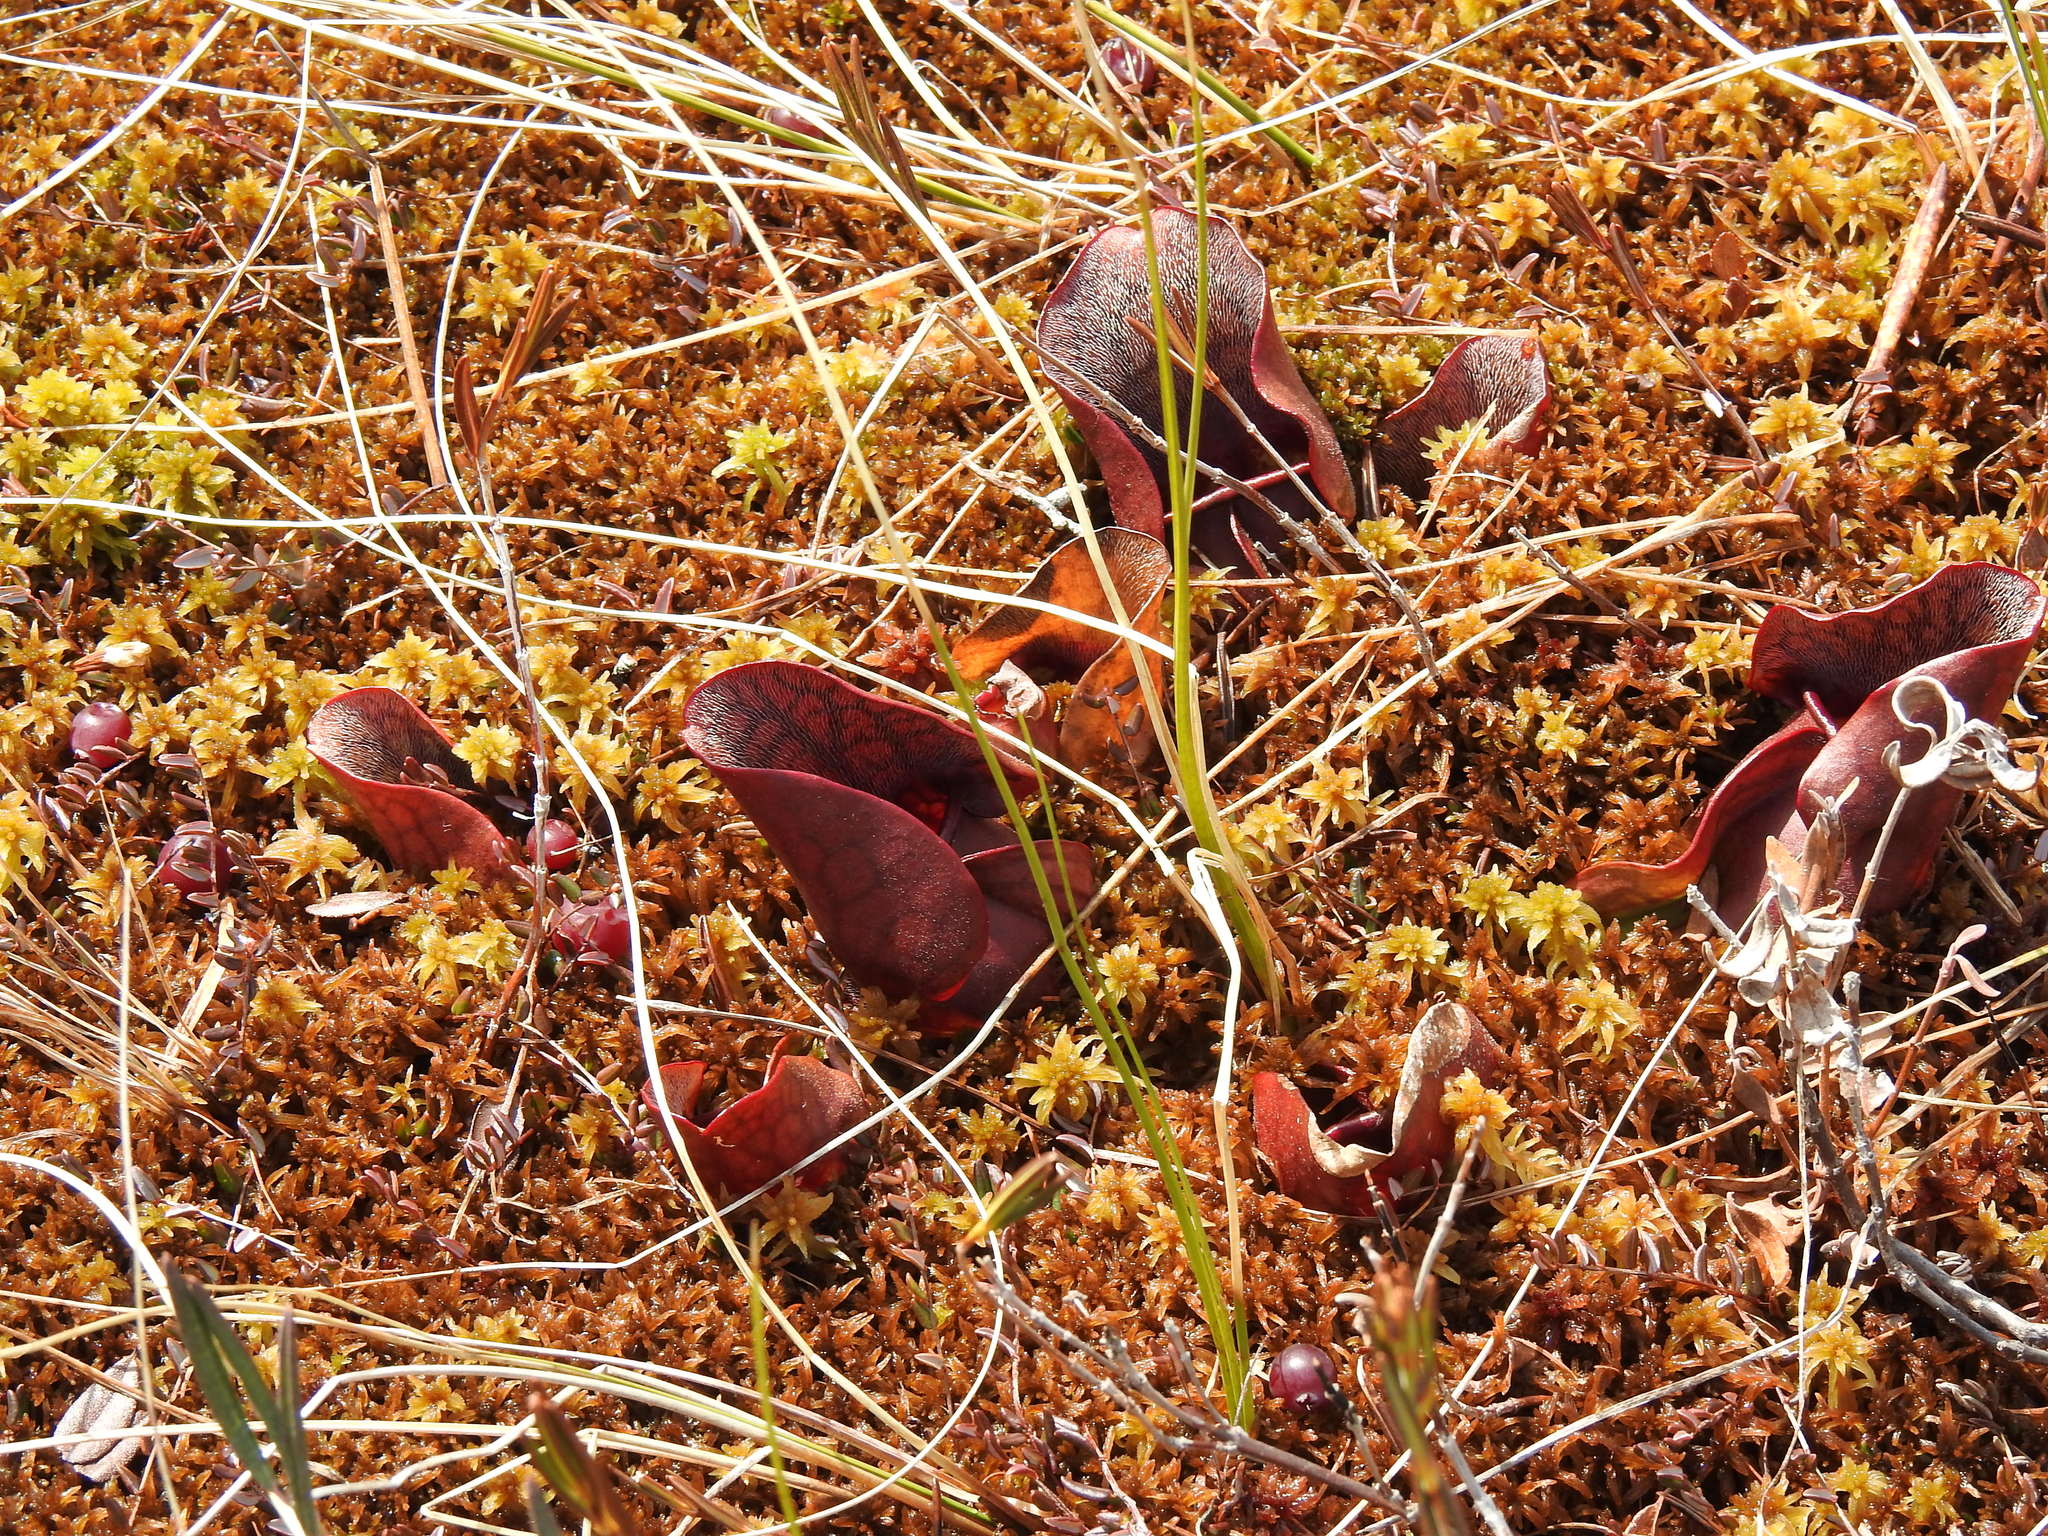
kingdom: Plantae
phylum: Tracheophyta
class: Magnoliopsida
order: Ericales
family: Sarraceniaceae
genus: Sarracenia
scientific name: Sarracenia purpurea
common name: Pitcherplant
